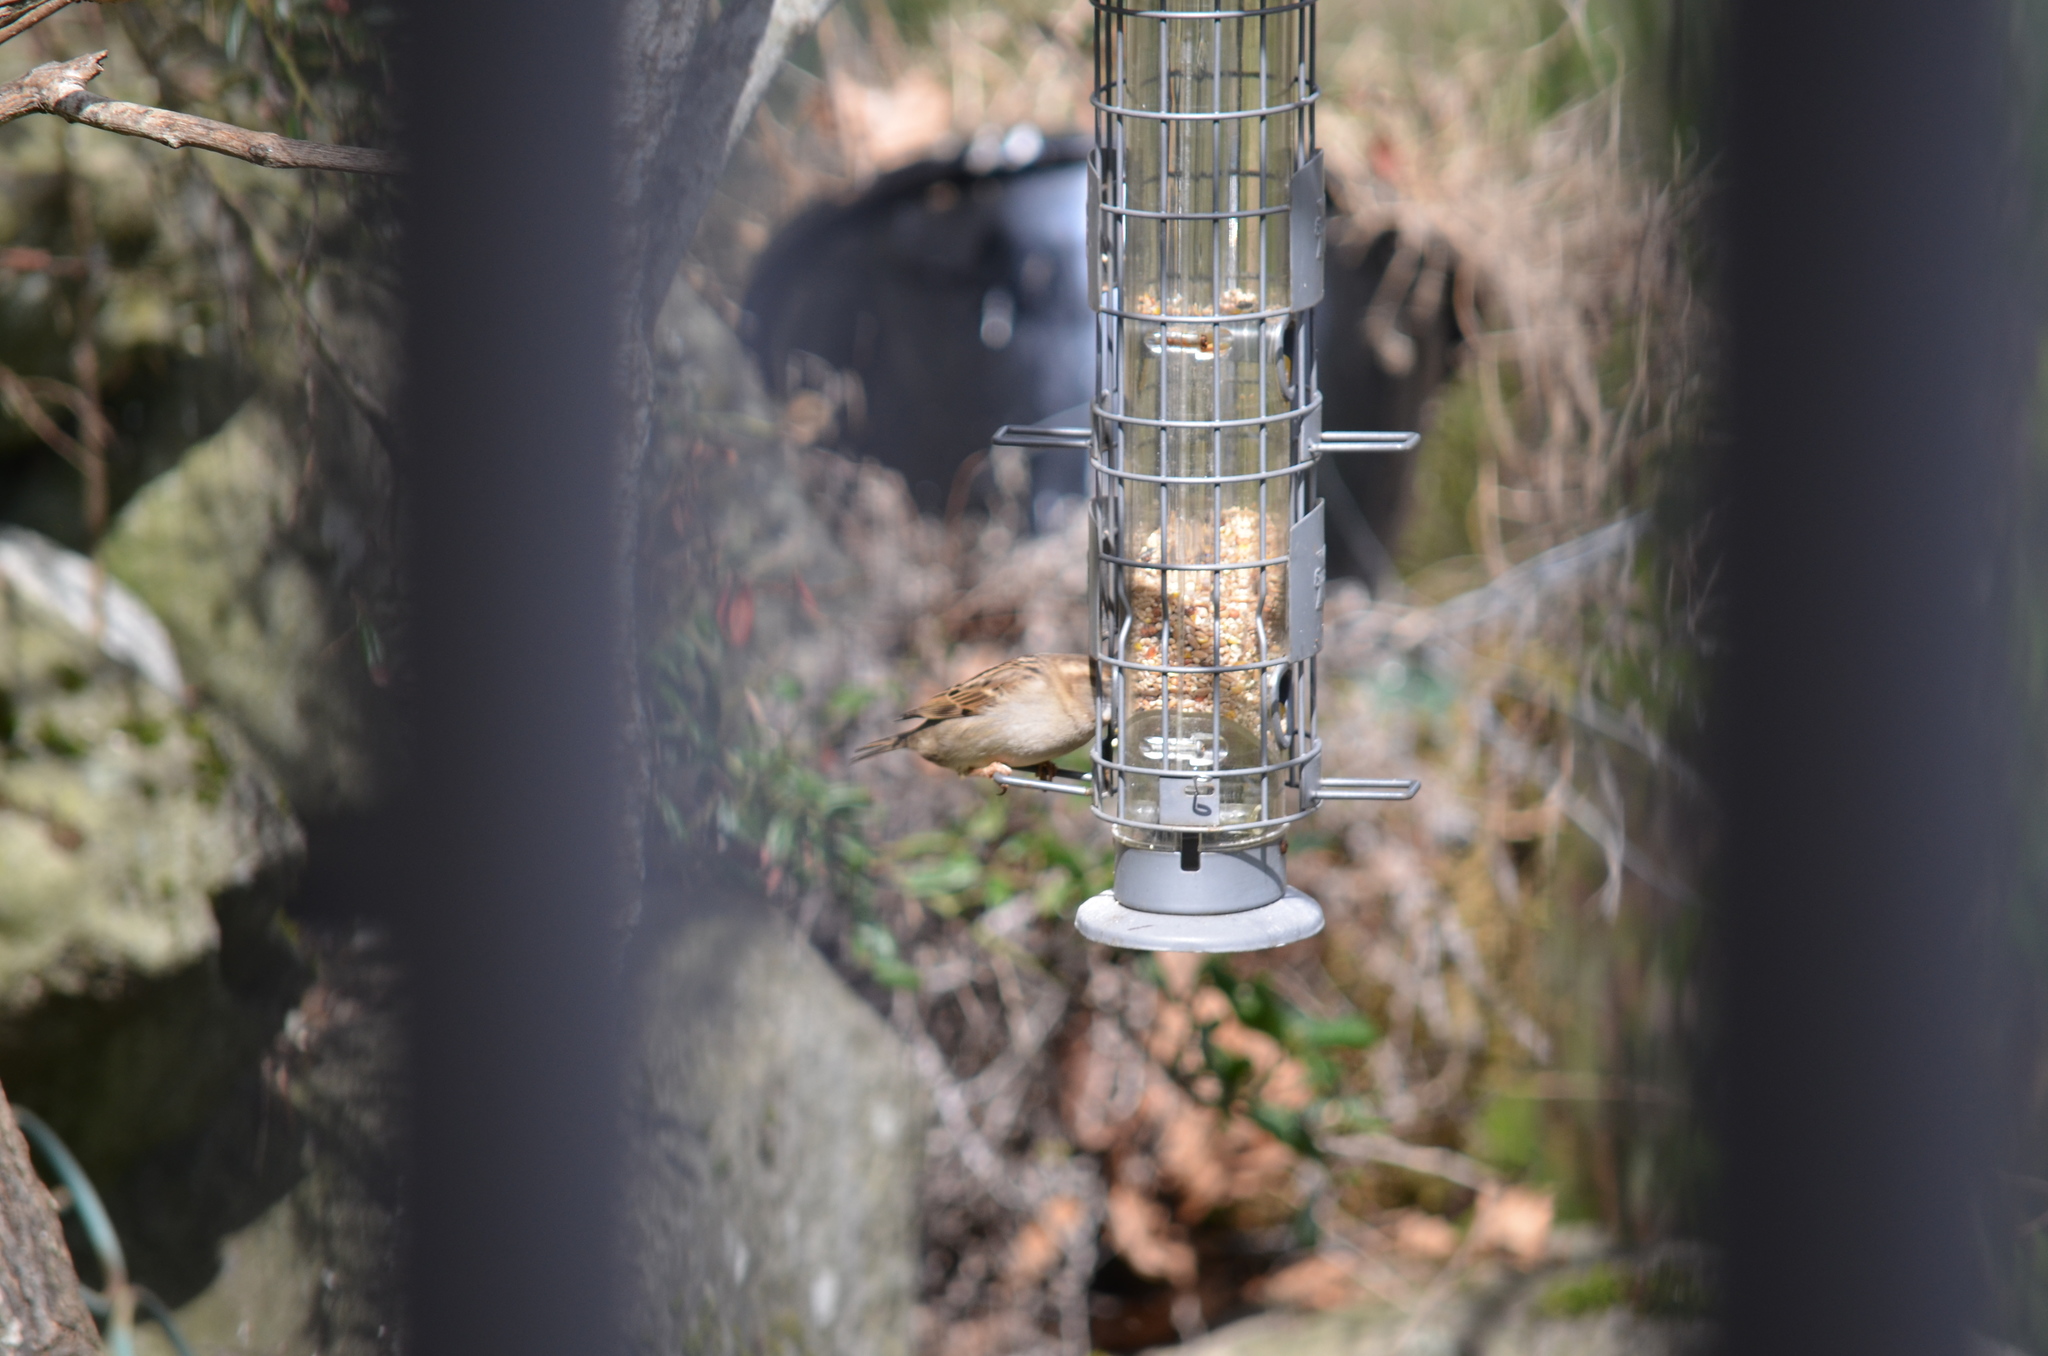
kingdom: Animalia
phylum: Chordata
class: Aves
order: Passeriformes
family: Passeridae
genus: Passer
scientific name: Passer domesticus
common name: House sparrow
